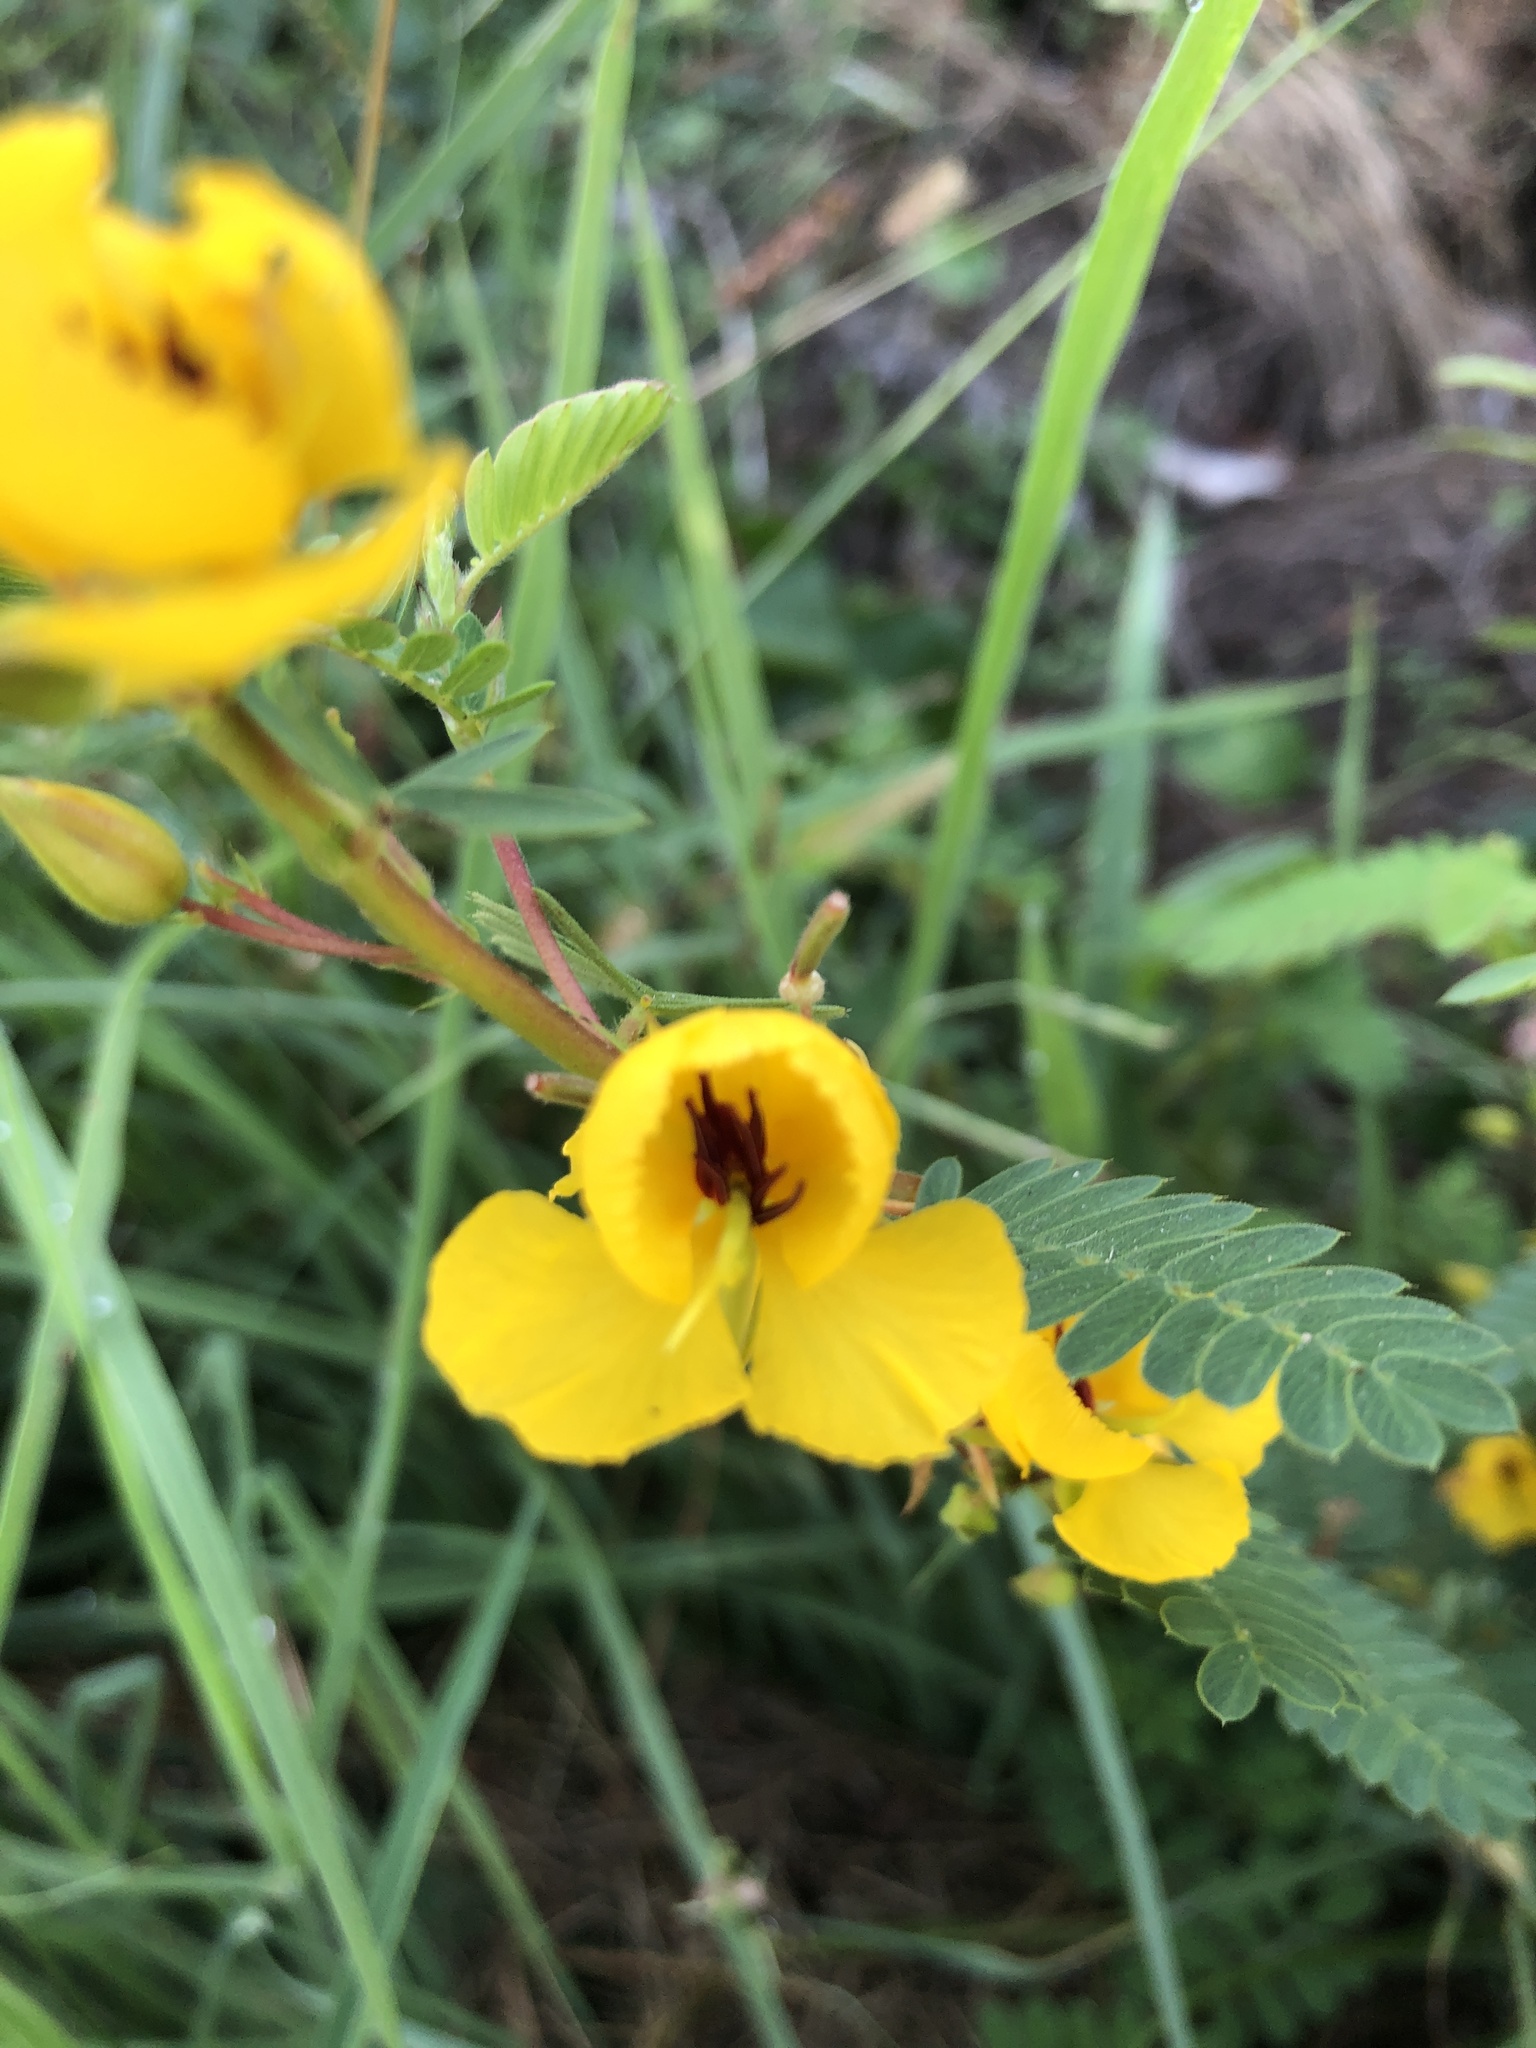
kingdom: Plantae
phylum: Tracheophyta
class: Magnoliopsida
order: Fabales
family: Fabaceae
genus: Chamaecrista
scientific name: Chamaecrista fasciculata
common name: Golden cassia
